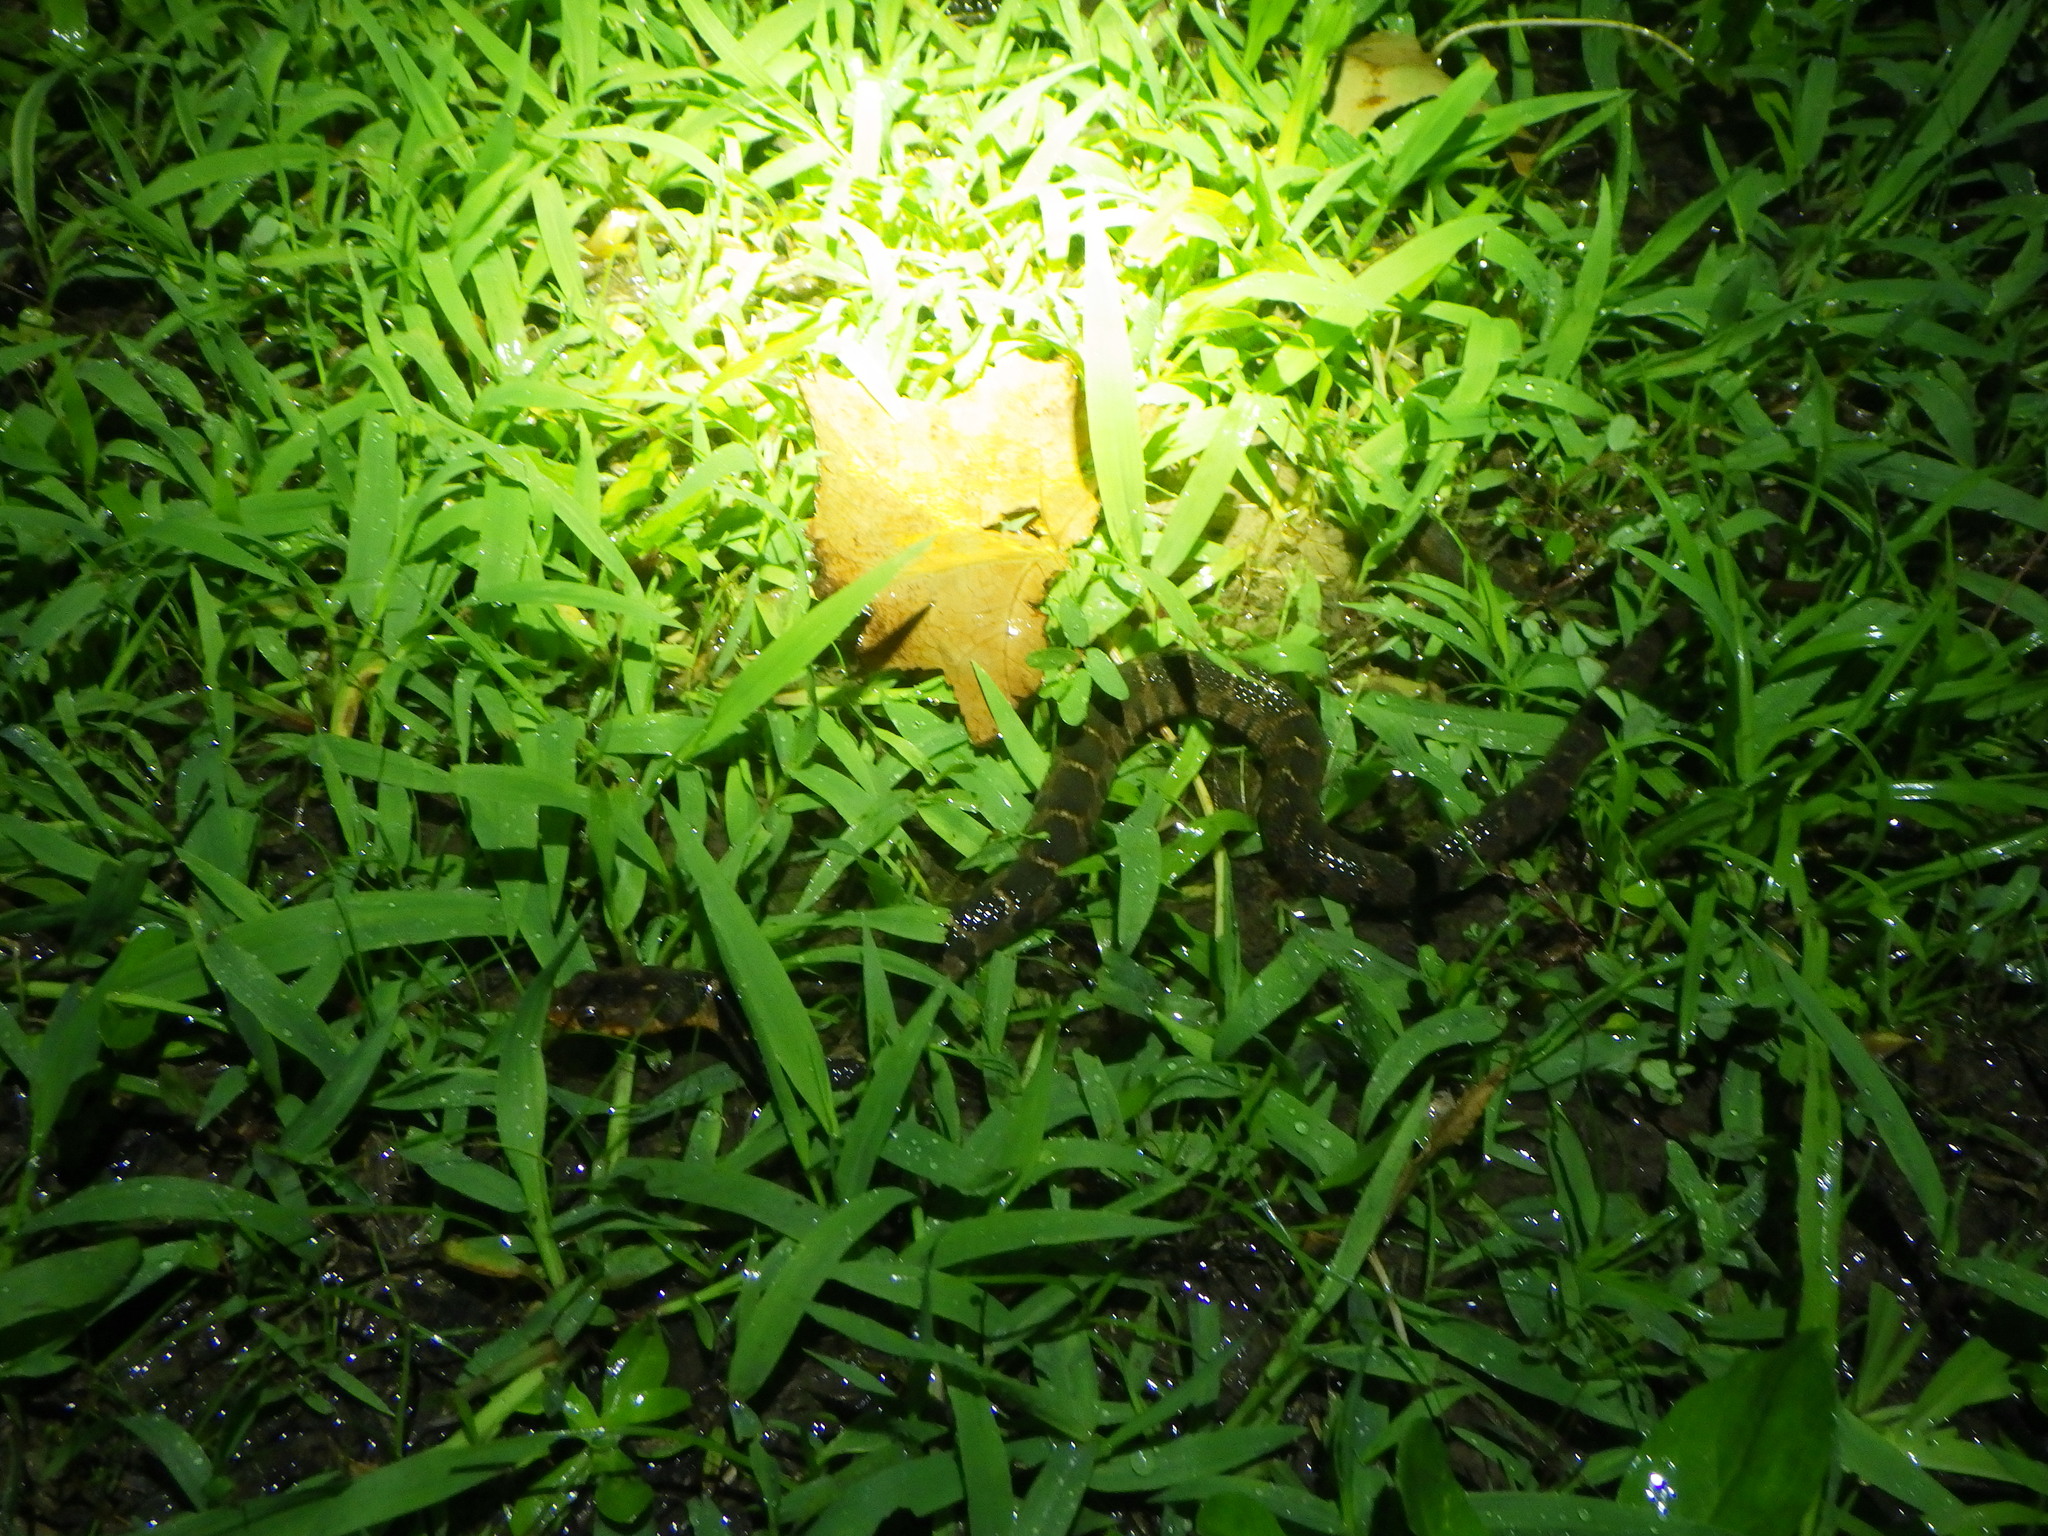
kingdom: Animalia
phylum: Chordata
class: Squamata
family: Colubridae
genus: Nerodia
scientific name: Nerodia erythrogaster
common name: Plainbelly water snake
